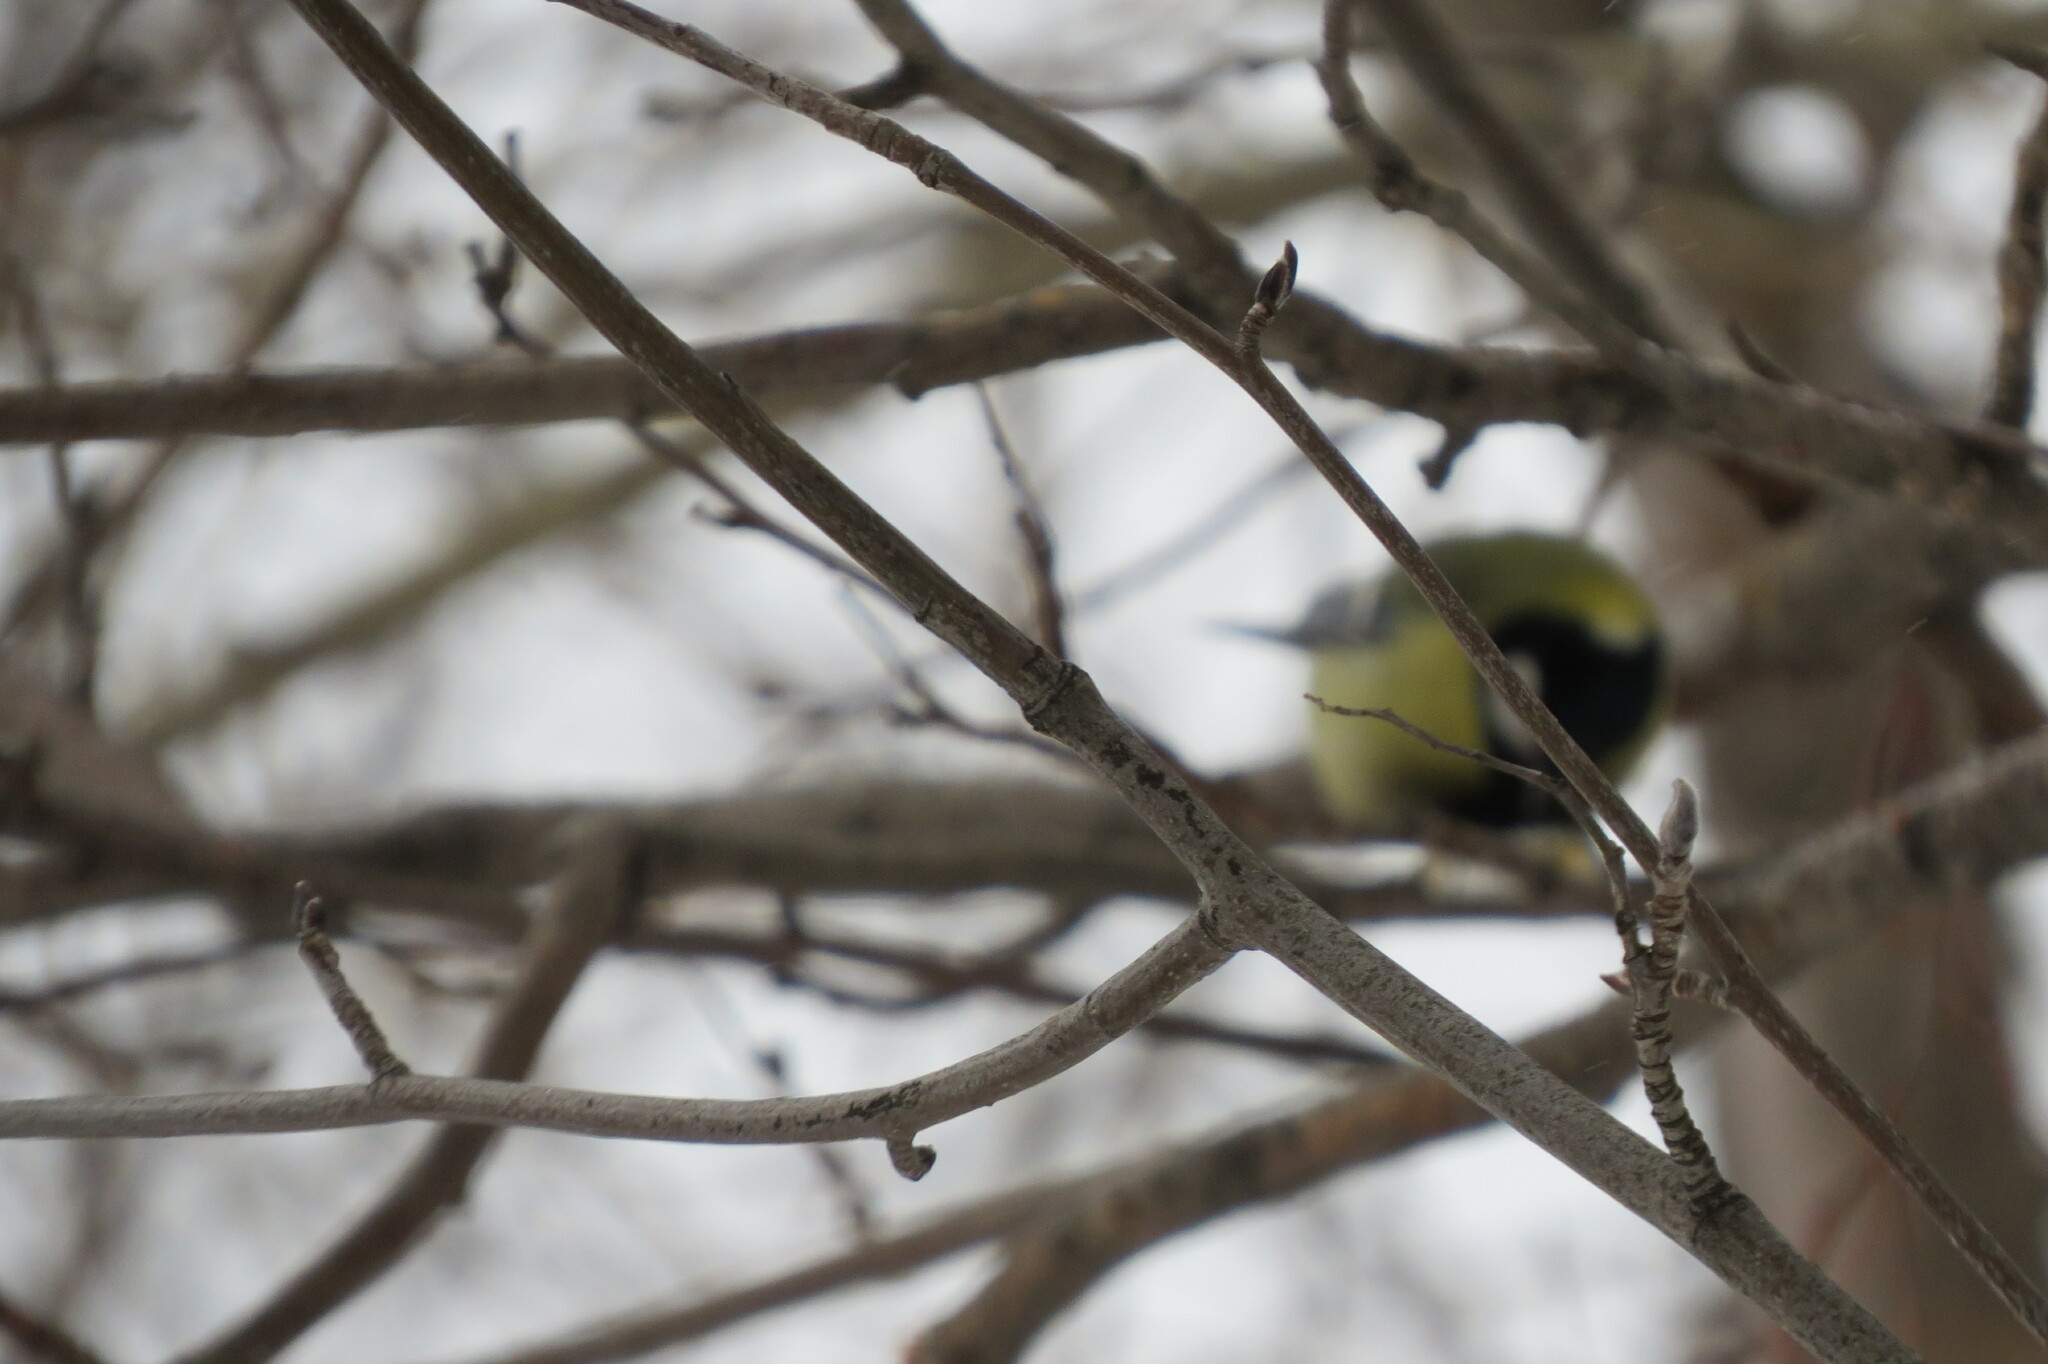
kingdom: Animalia
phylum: Chordata
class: Aves
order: Passeriformes
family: Paridae
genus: Parus
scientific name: Parus major
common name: Great tit
